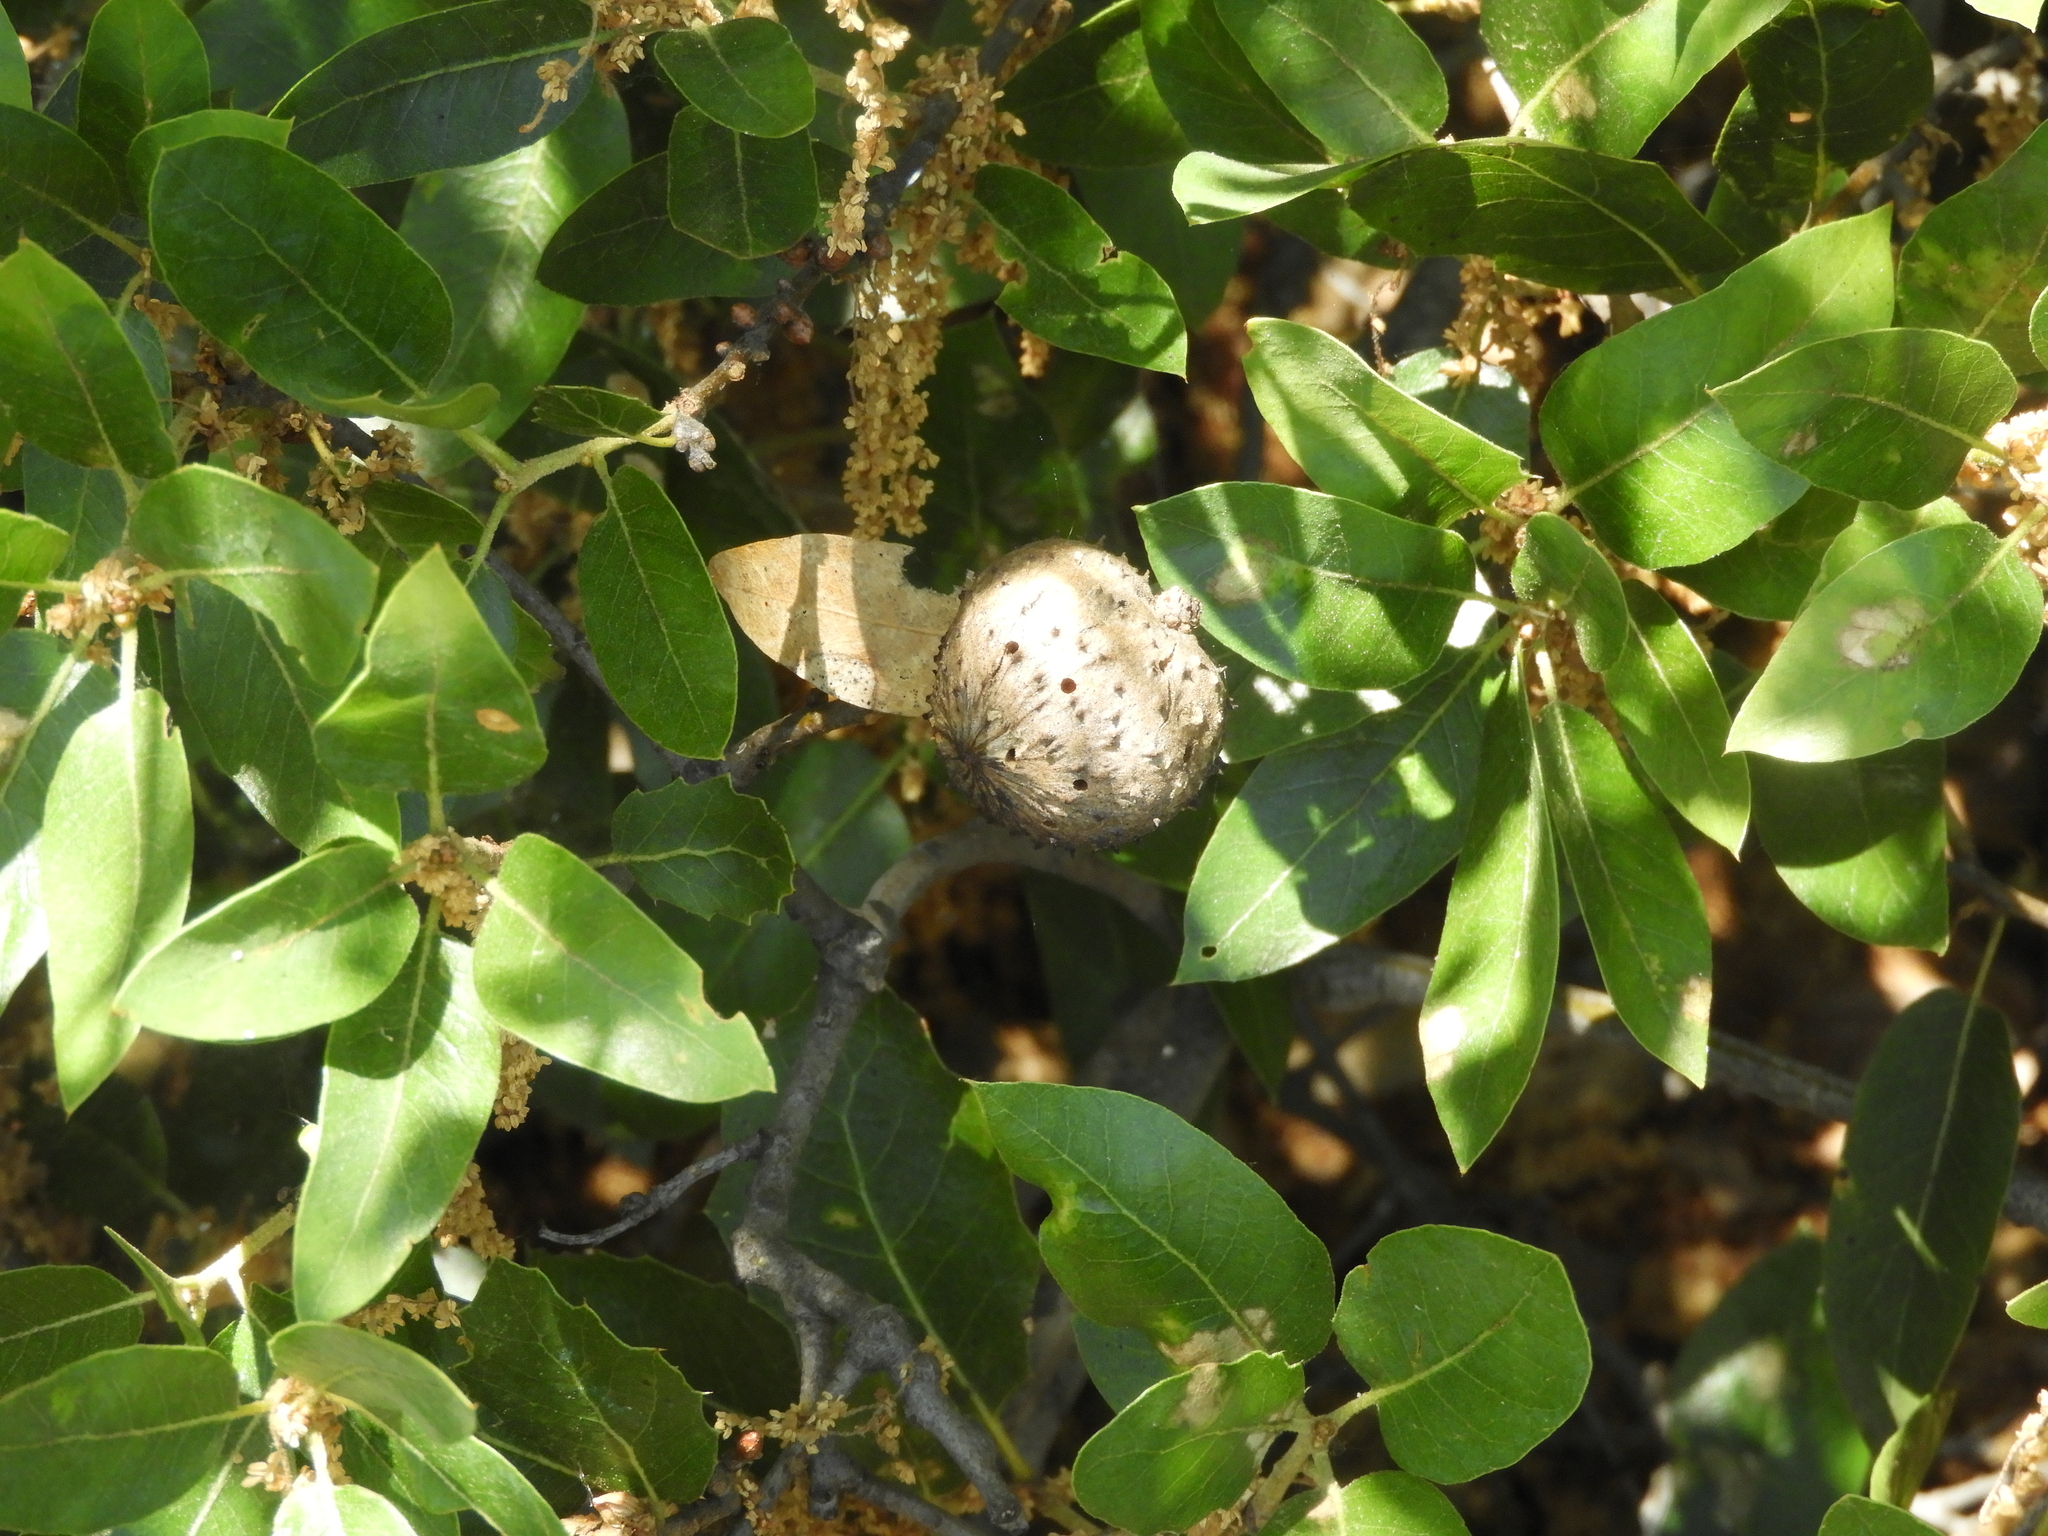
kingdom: Animalia
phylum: Arthropoda
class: Insecta
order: Hymenoptera
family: Cynipidae
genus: Amphibolips
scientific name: Amphibolips quercuspomiformis
